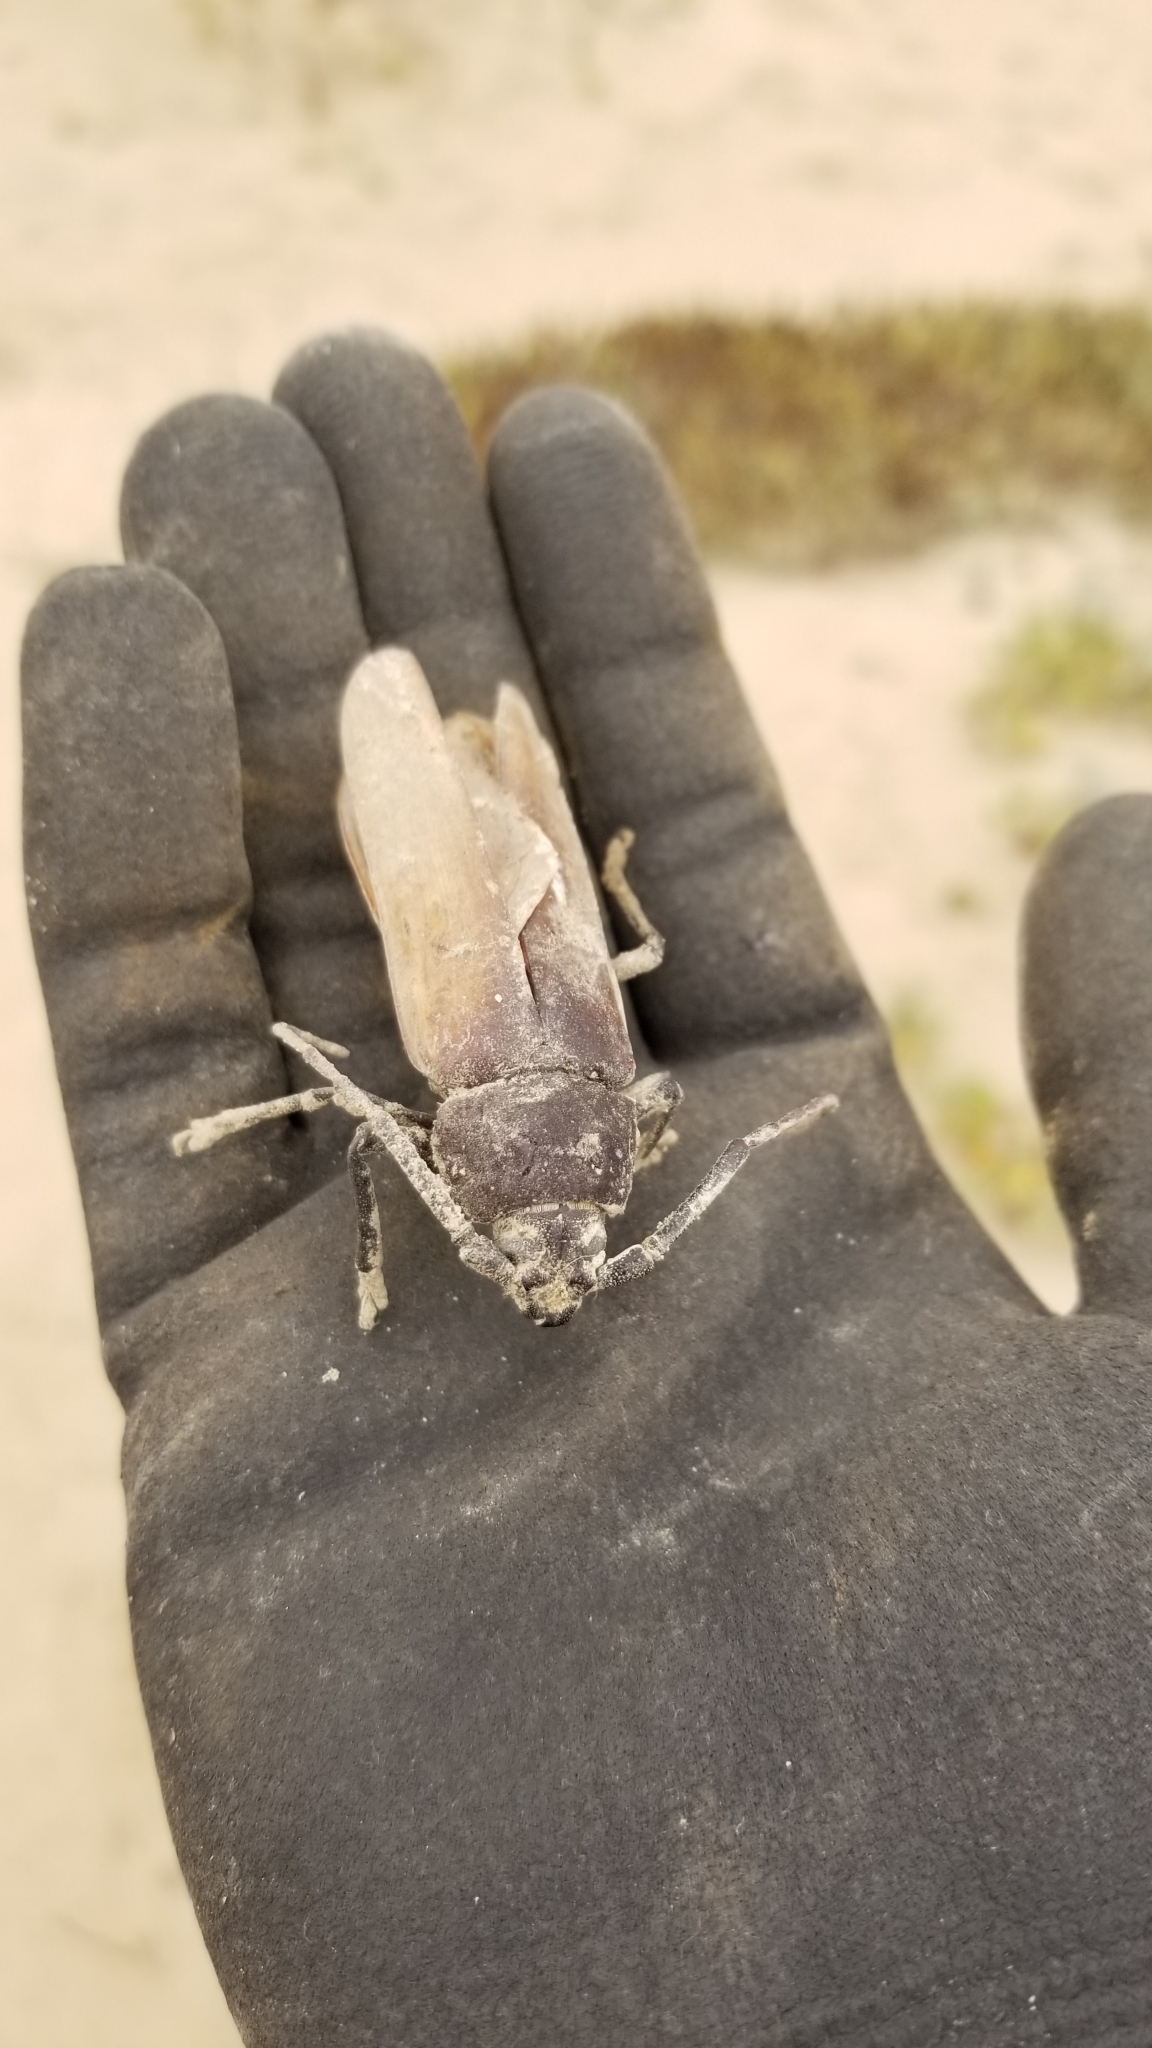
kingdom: Animalia
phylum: Arthropoda
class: Insecta
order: Coleoptera
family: Cerambycidae
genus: Trichocnemis
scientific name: Trichocnemis spiculatus
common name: Long-horned beetle
